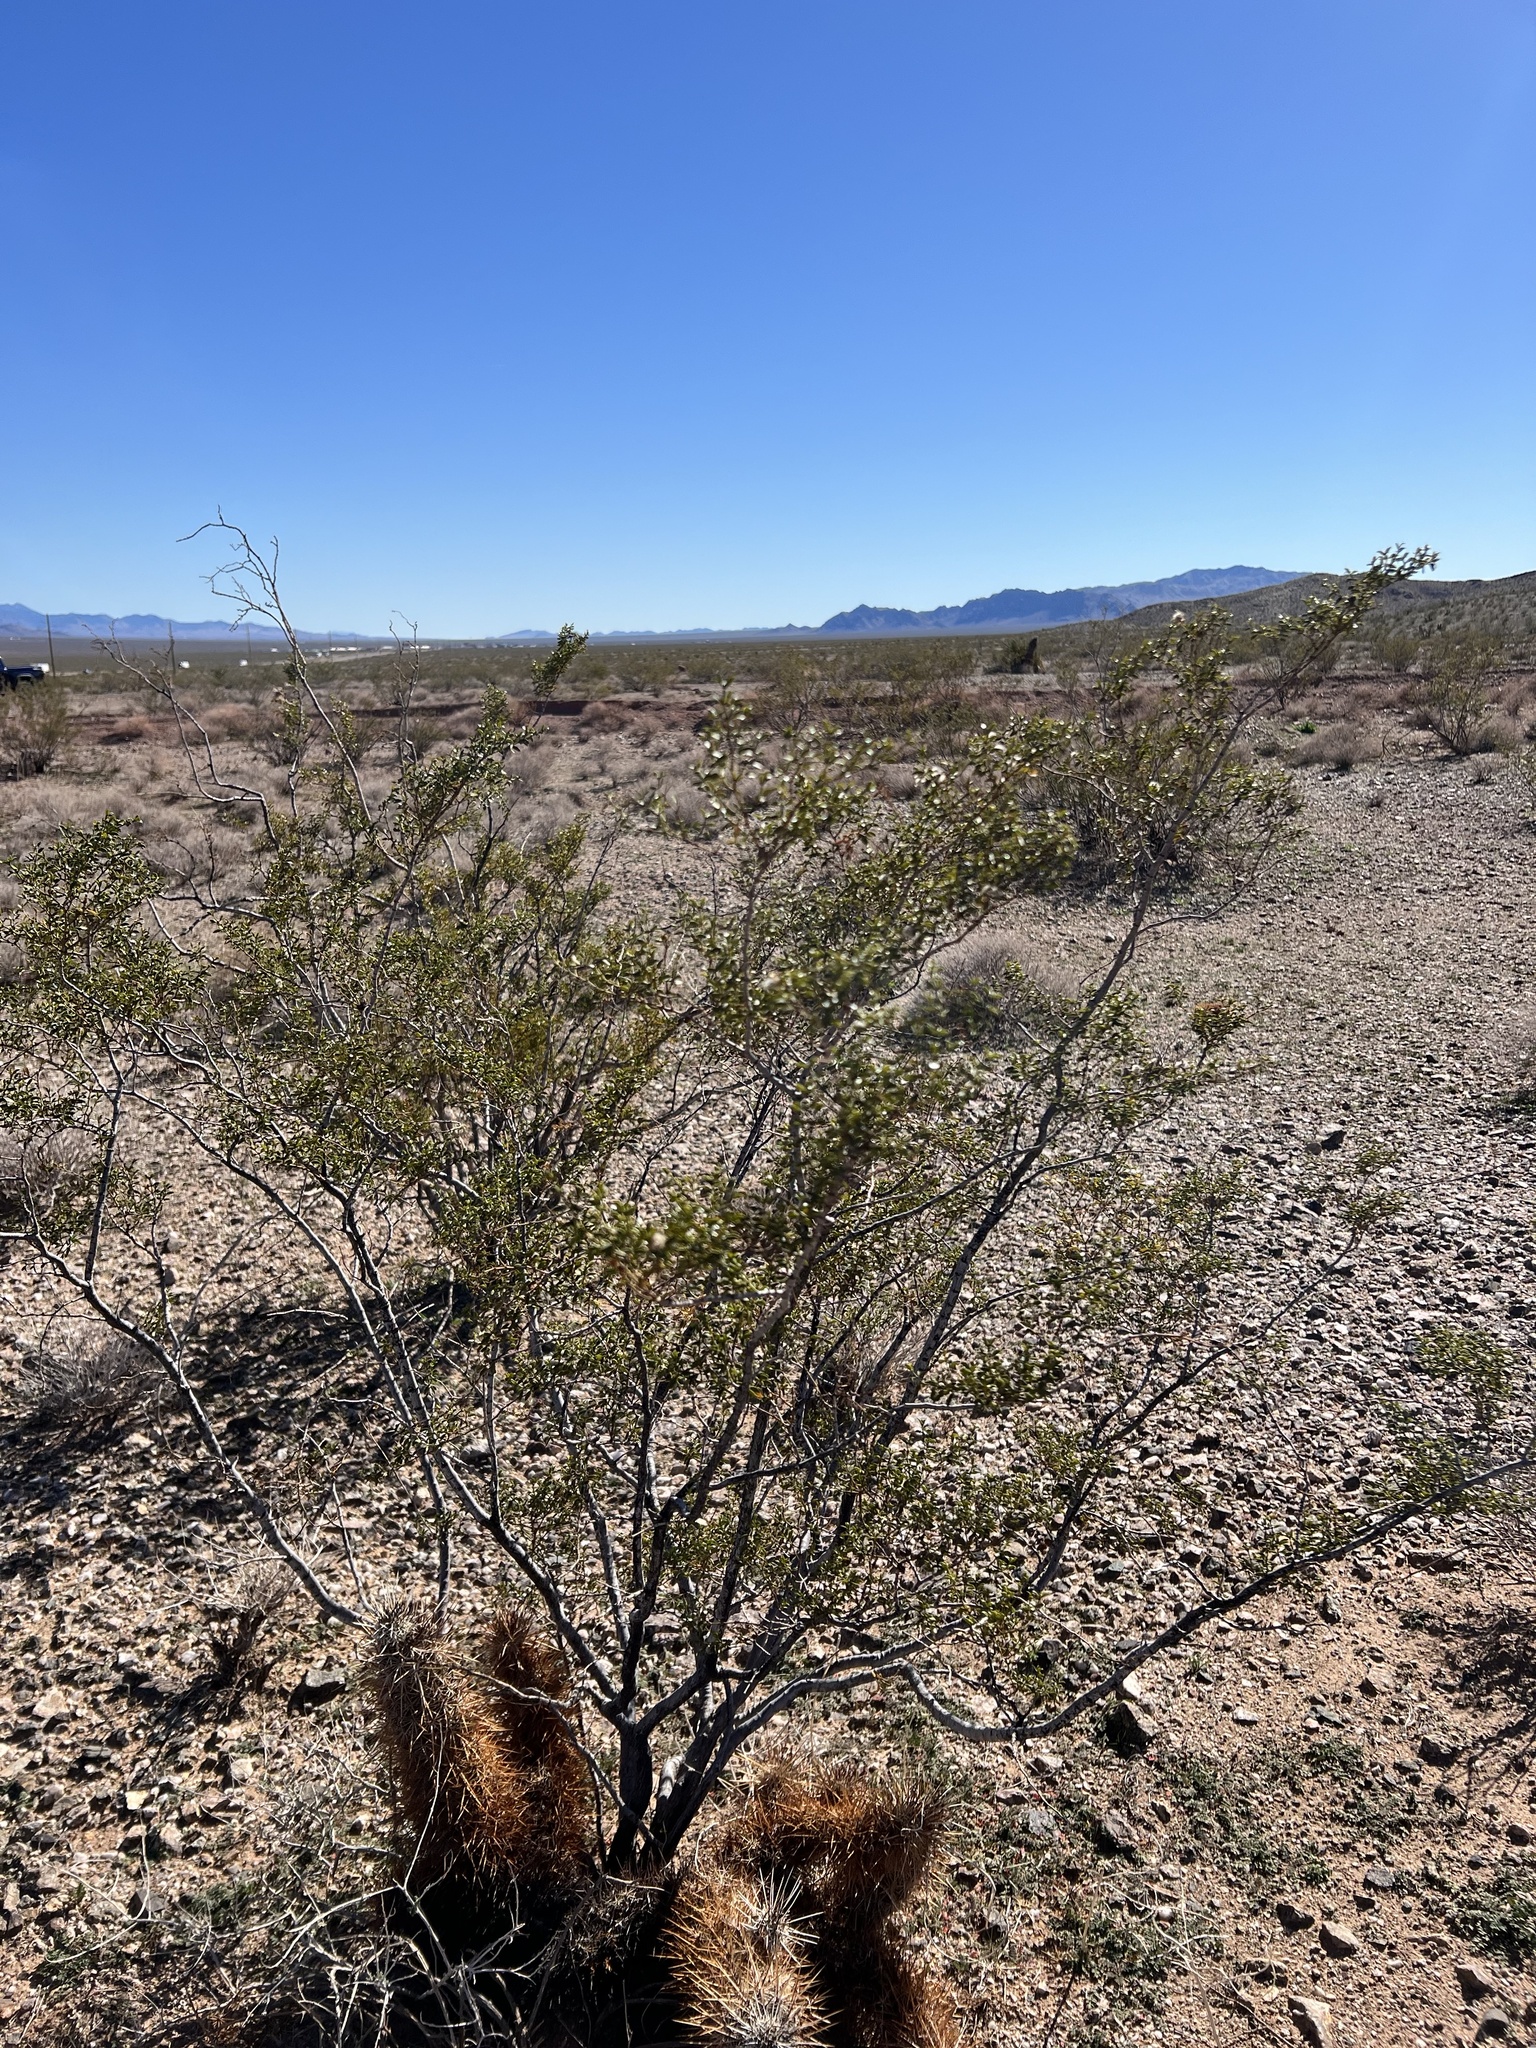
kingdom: Plantae
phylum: Tracheophyta
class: Magnoliopsida
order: Zygophyllales
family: Zygophyllaceae
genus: Larrea
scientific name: Larrea tridentata
